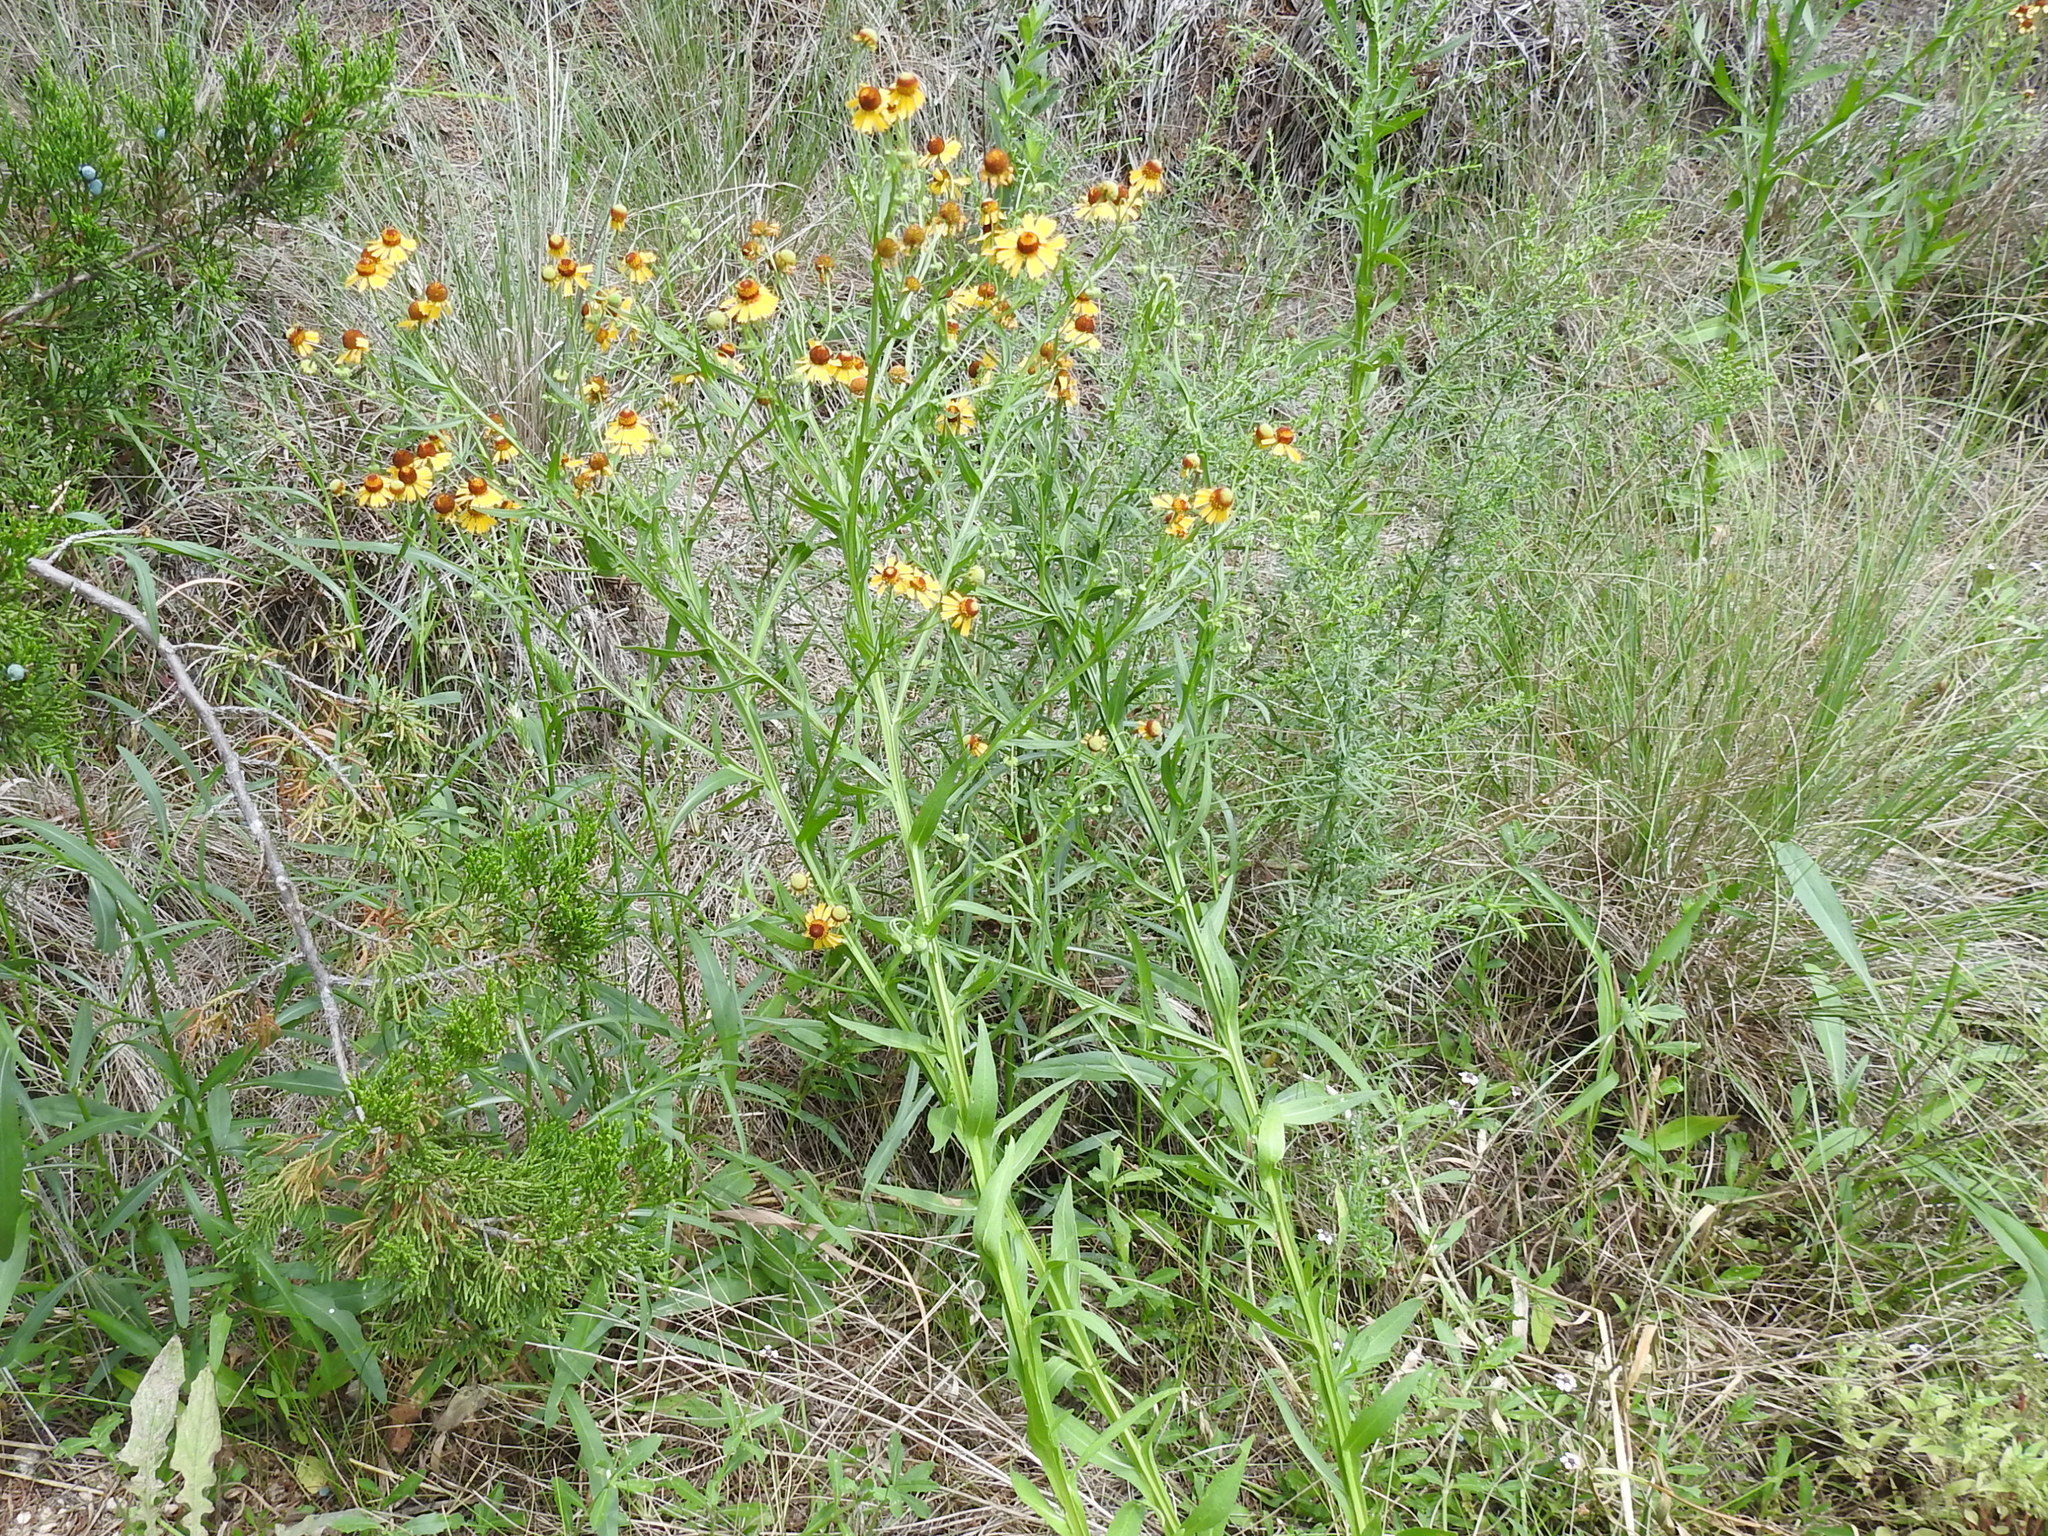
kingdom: Plantae
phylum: Tracheophyta
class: Magnoliopsida
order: Asterales
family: Asteraceae
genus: Helenium
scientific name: Helenium elegans
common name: Pretty sneezeweed
